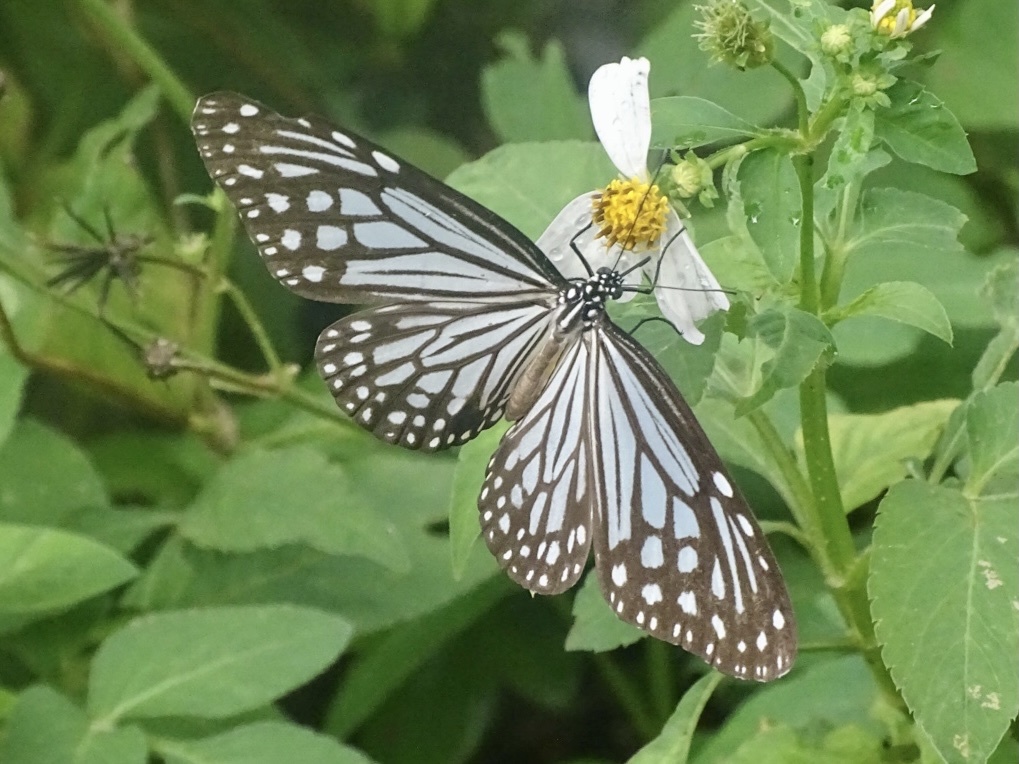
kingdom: Animalia
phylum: Arthropoda
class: Insecta
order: Lepidoptera
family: Nymphalidae
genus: Parantica
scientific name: Parantica aglea
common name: Glassy tiger
